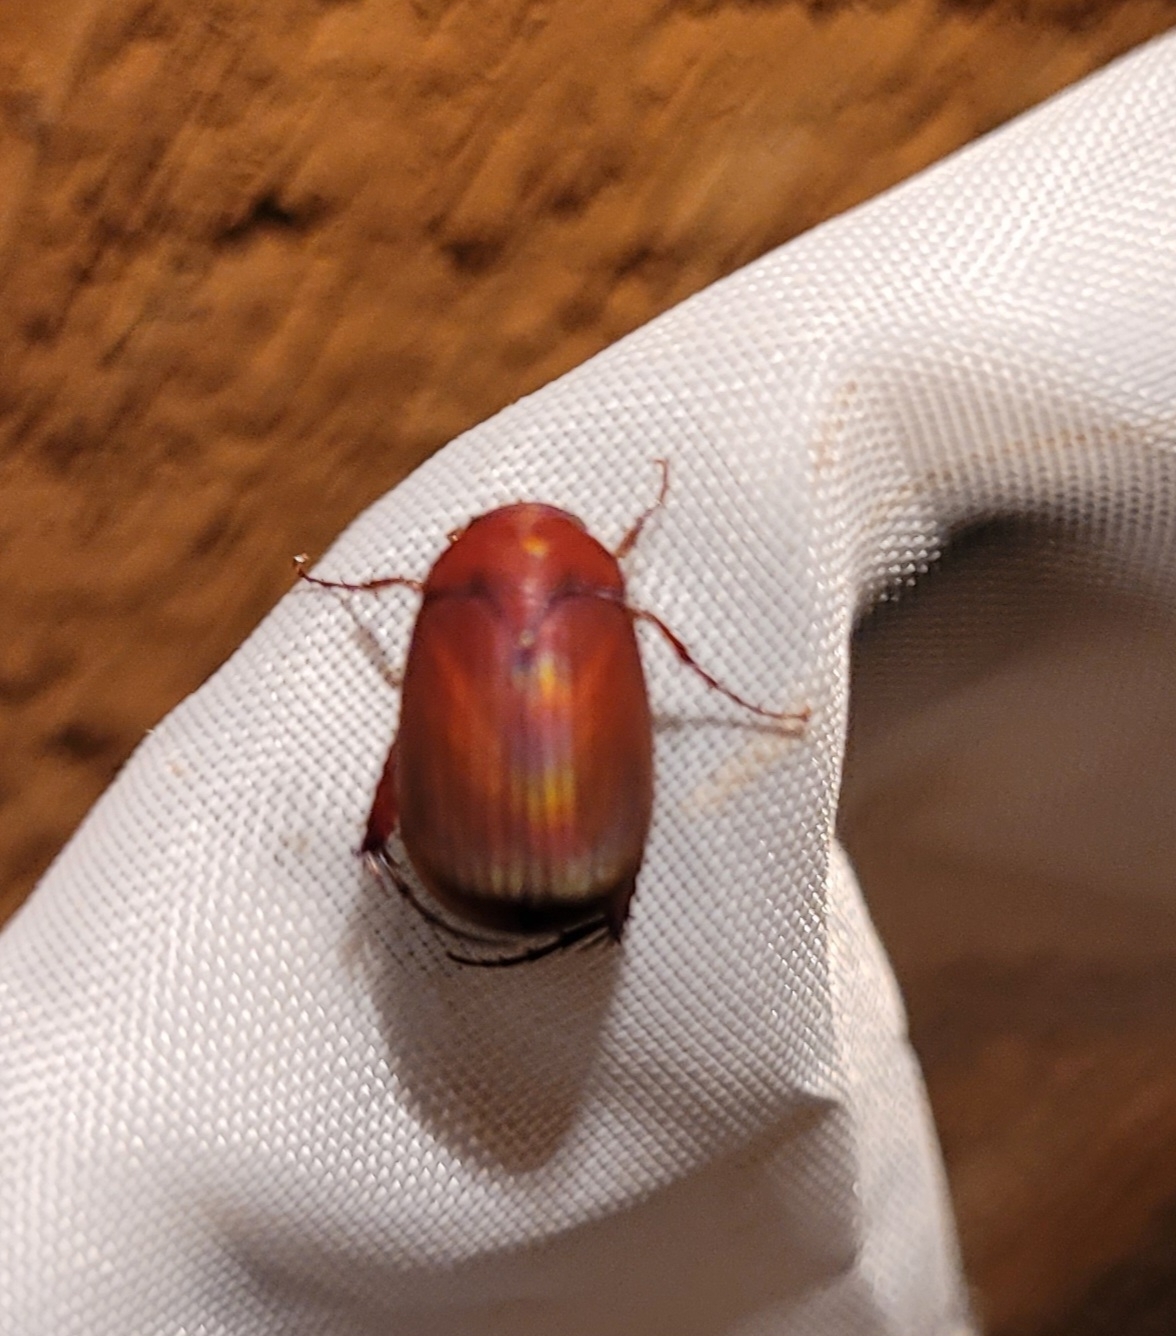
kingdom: Animalia
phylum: Arthropoda
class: Insecta
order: Coleoptera
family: Scarabaeidae
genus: Maladera
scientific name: Maladera formosae
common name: Asiatic garden beetle
